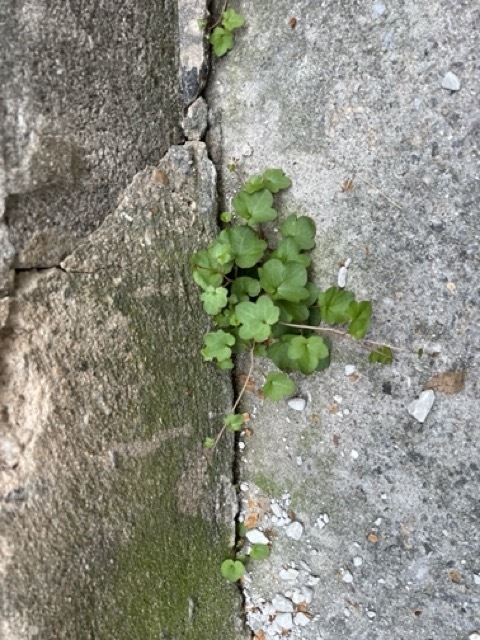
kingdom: Plantae
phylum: Tracheophyta
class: Magnoliopsida
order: Lamiales
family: Plantaginaceae
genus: Cymbalaria
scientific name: Cymbalaria muralis
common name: Ivy-leaved toadflax
